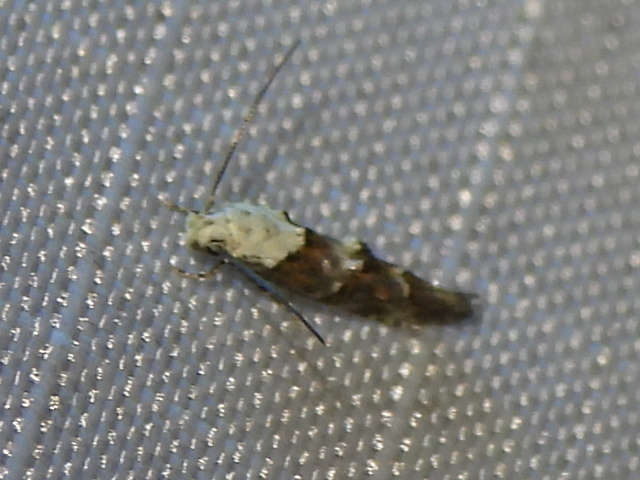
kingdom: Animalia
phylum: Arthropoda
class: Insecta
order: Lepidoptera
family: Momphidae
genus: Mompha
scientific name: Mompha albocapitella
